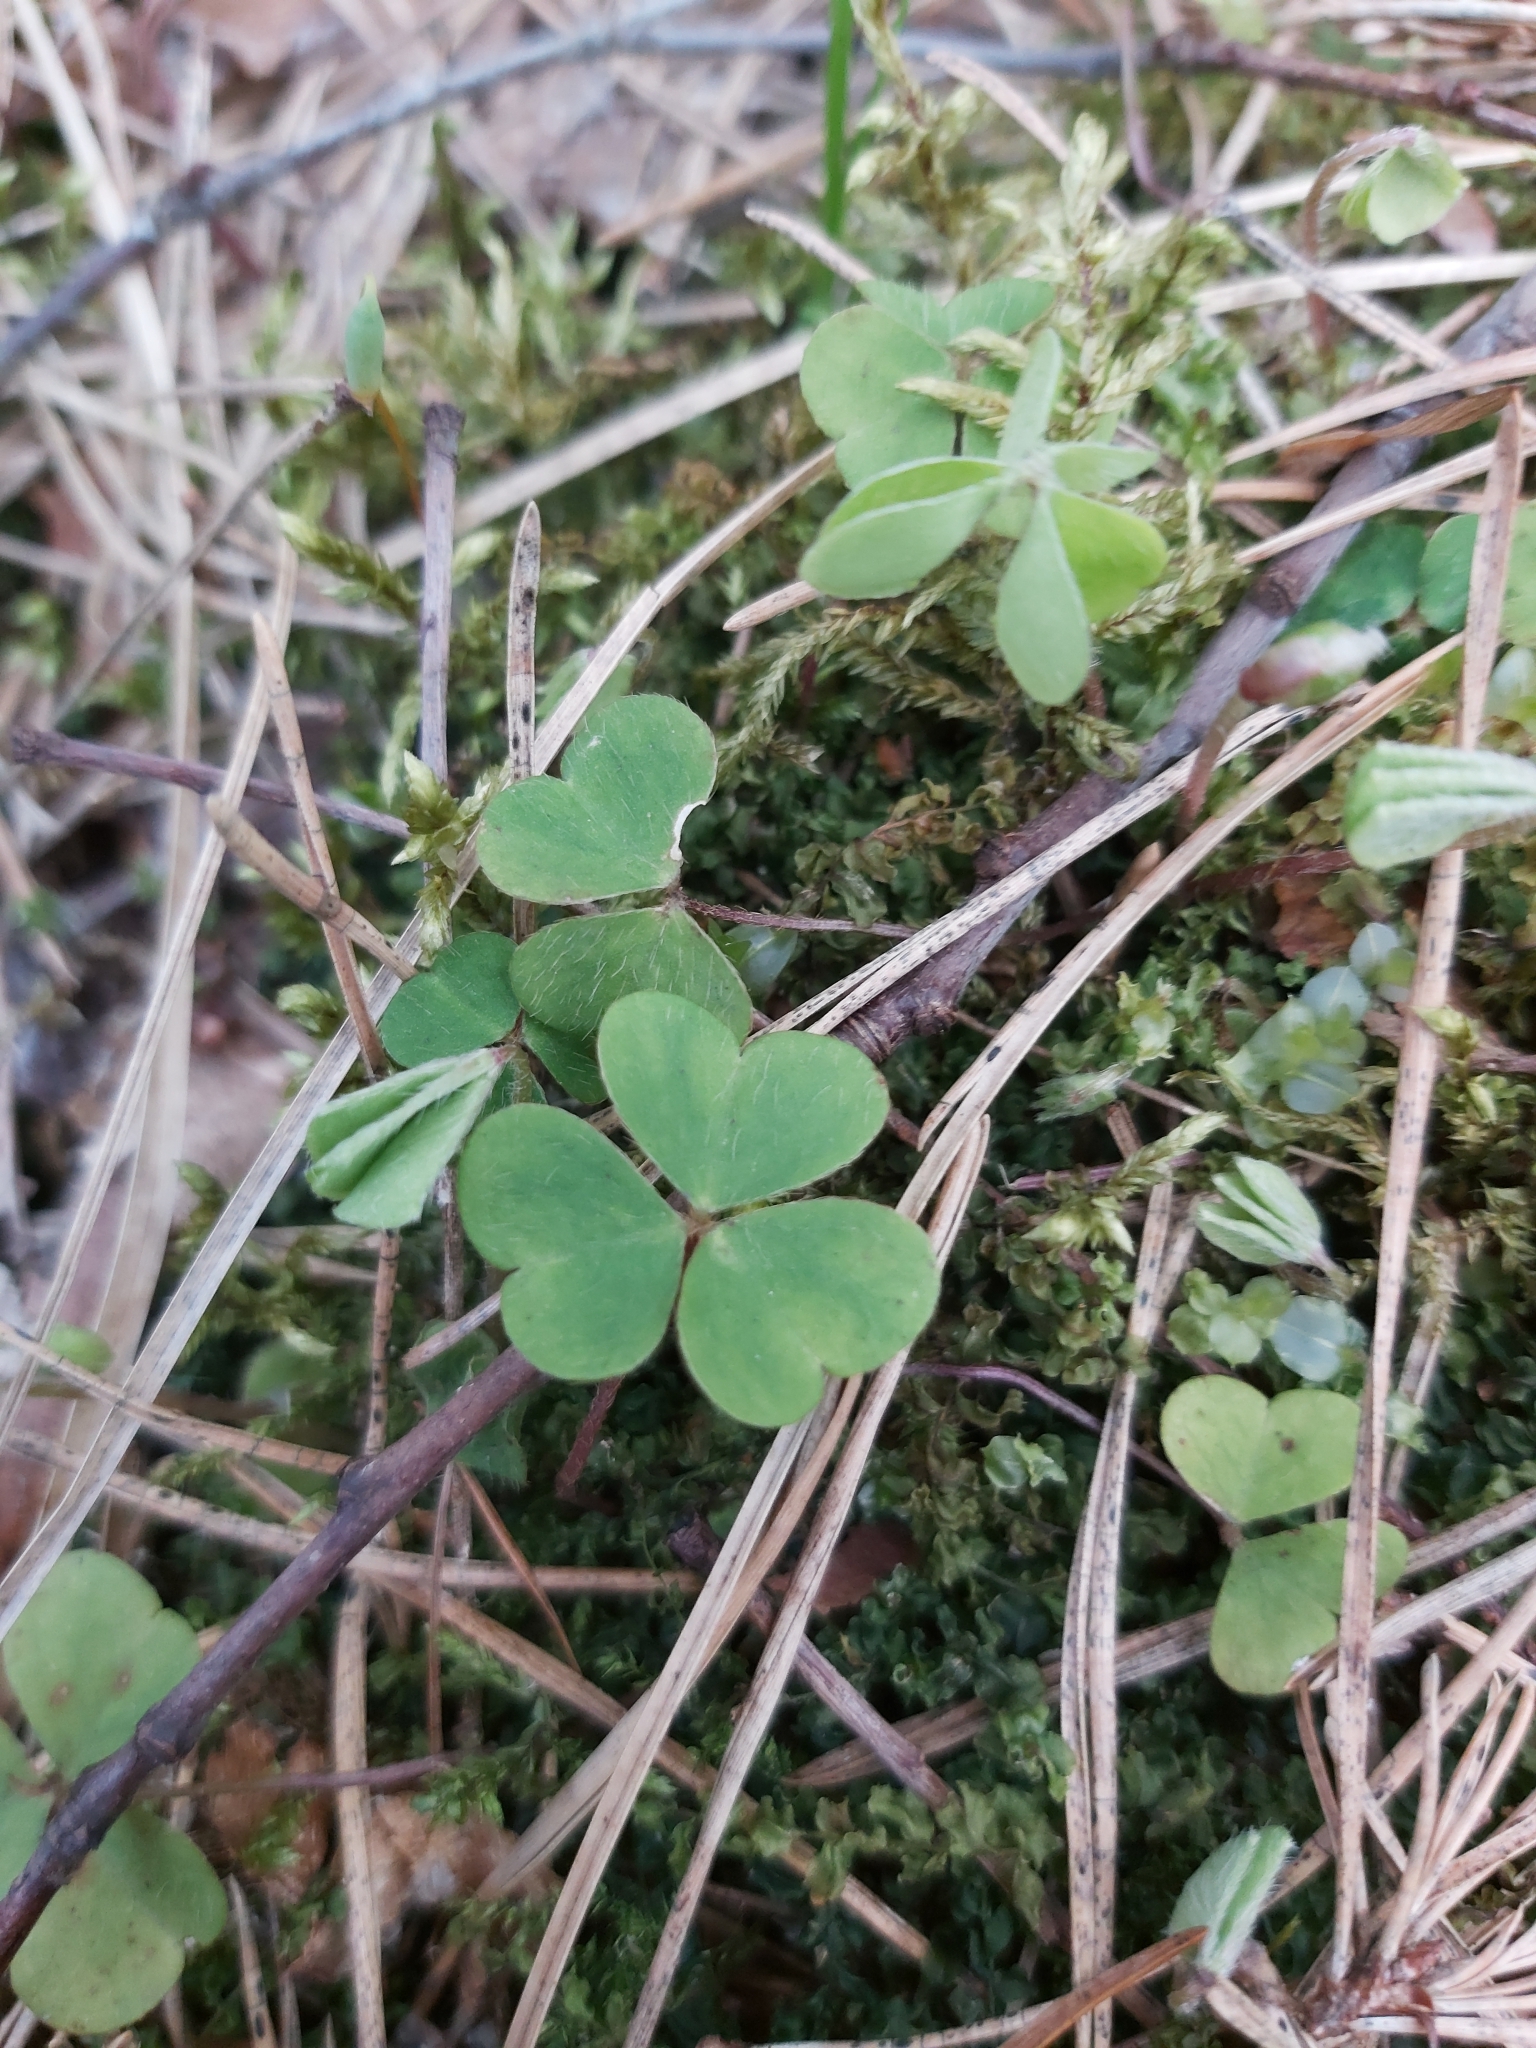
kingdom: Plantae
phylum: Tracheophyta
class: Magnoliopsida
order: Oxalidales
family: Oxalidaceae
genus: Oxalis
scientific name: Oxalis acetosella
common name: Wood-sorrel
